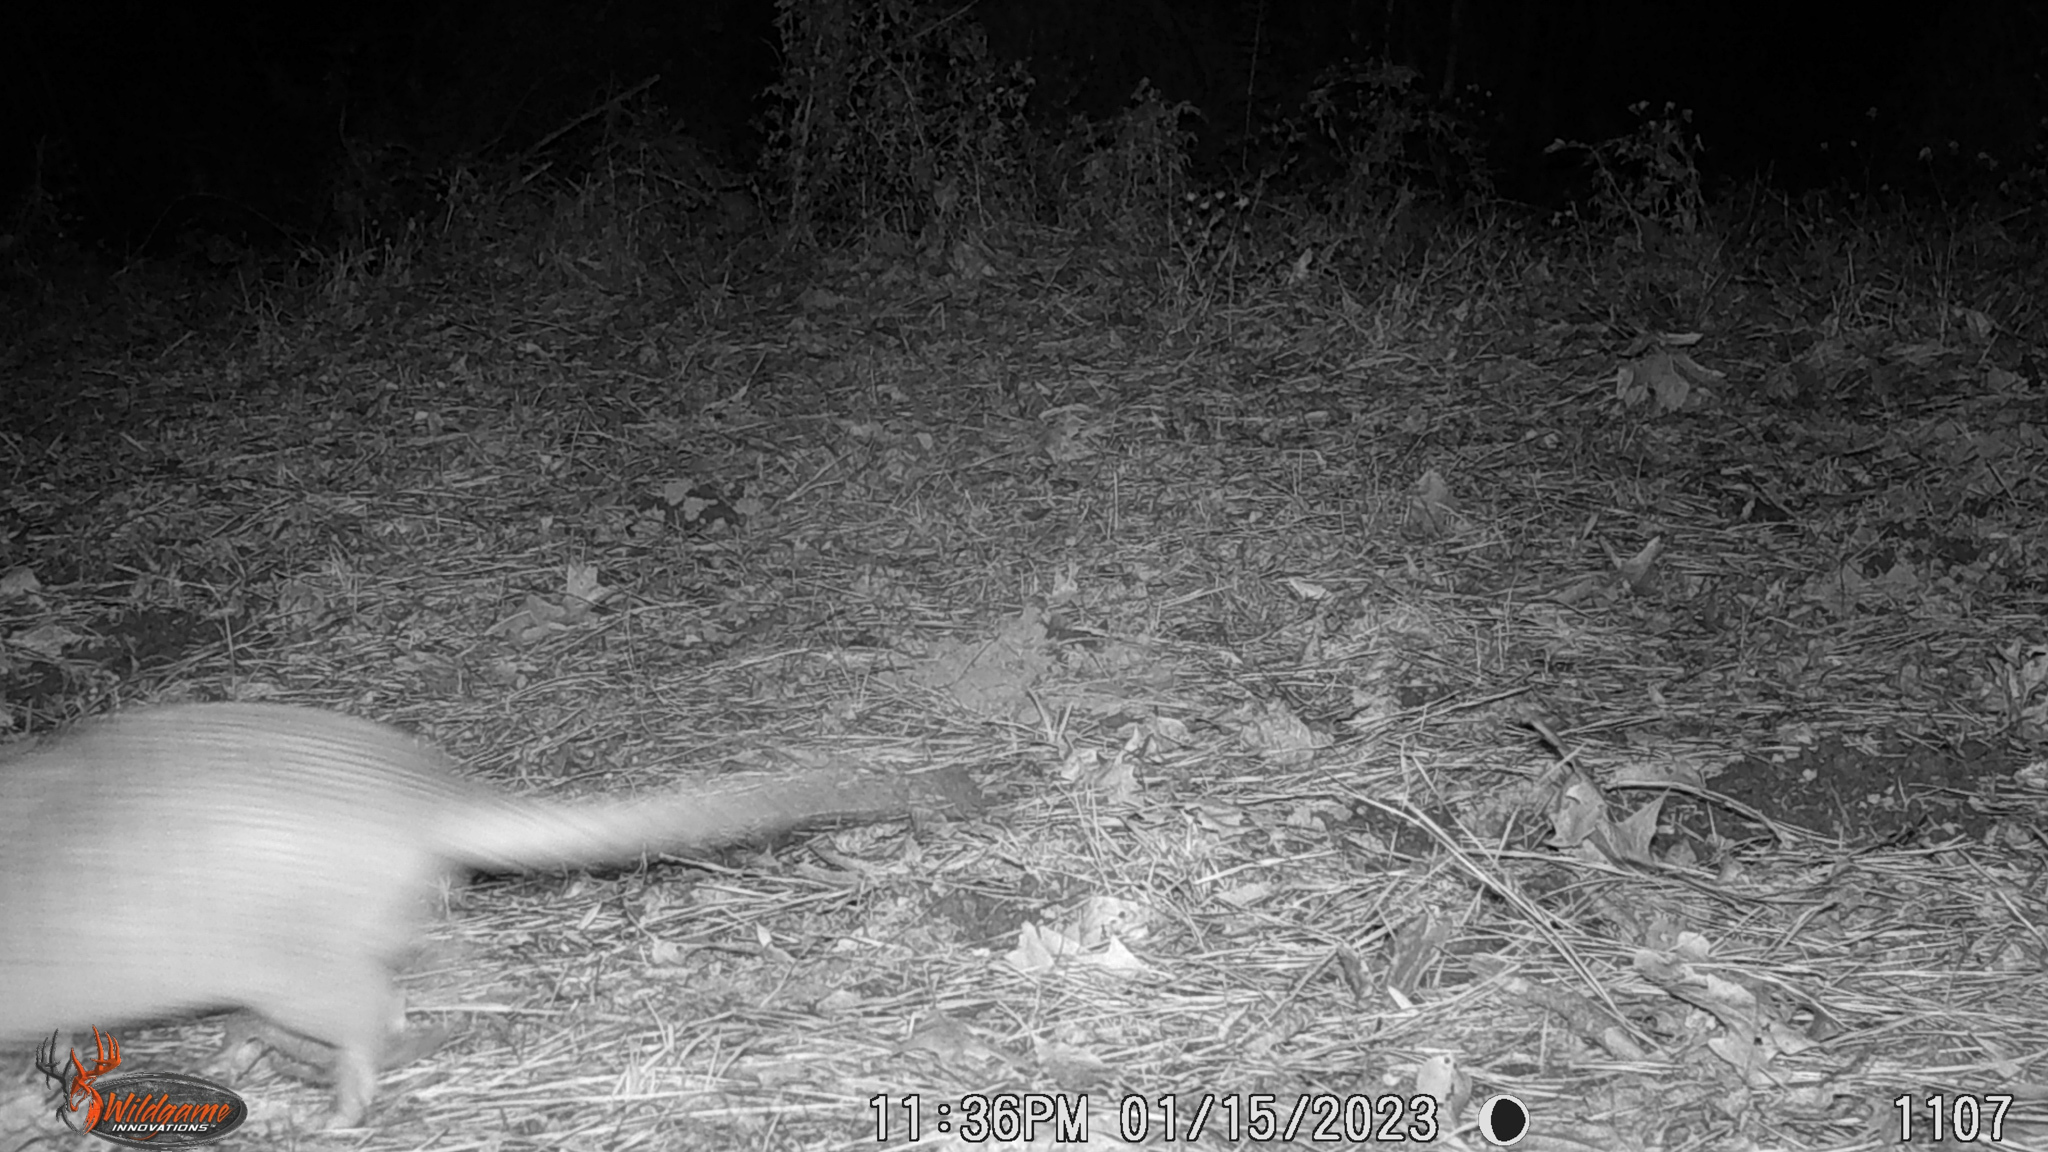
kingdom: Animalia
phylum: Chordata
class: Mammalia
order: Cingulata
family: Dasypodidae
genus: Dasypus
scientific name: Dasypus novemcinctus
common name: Nine-banded armadillo
